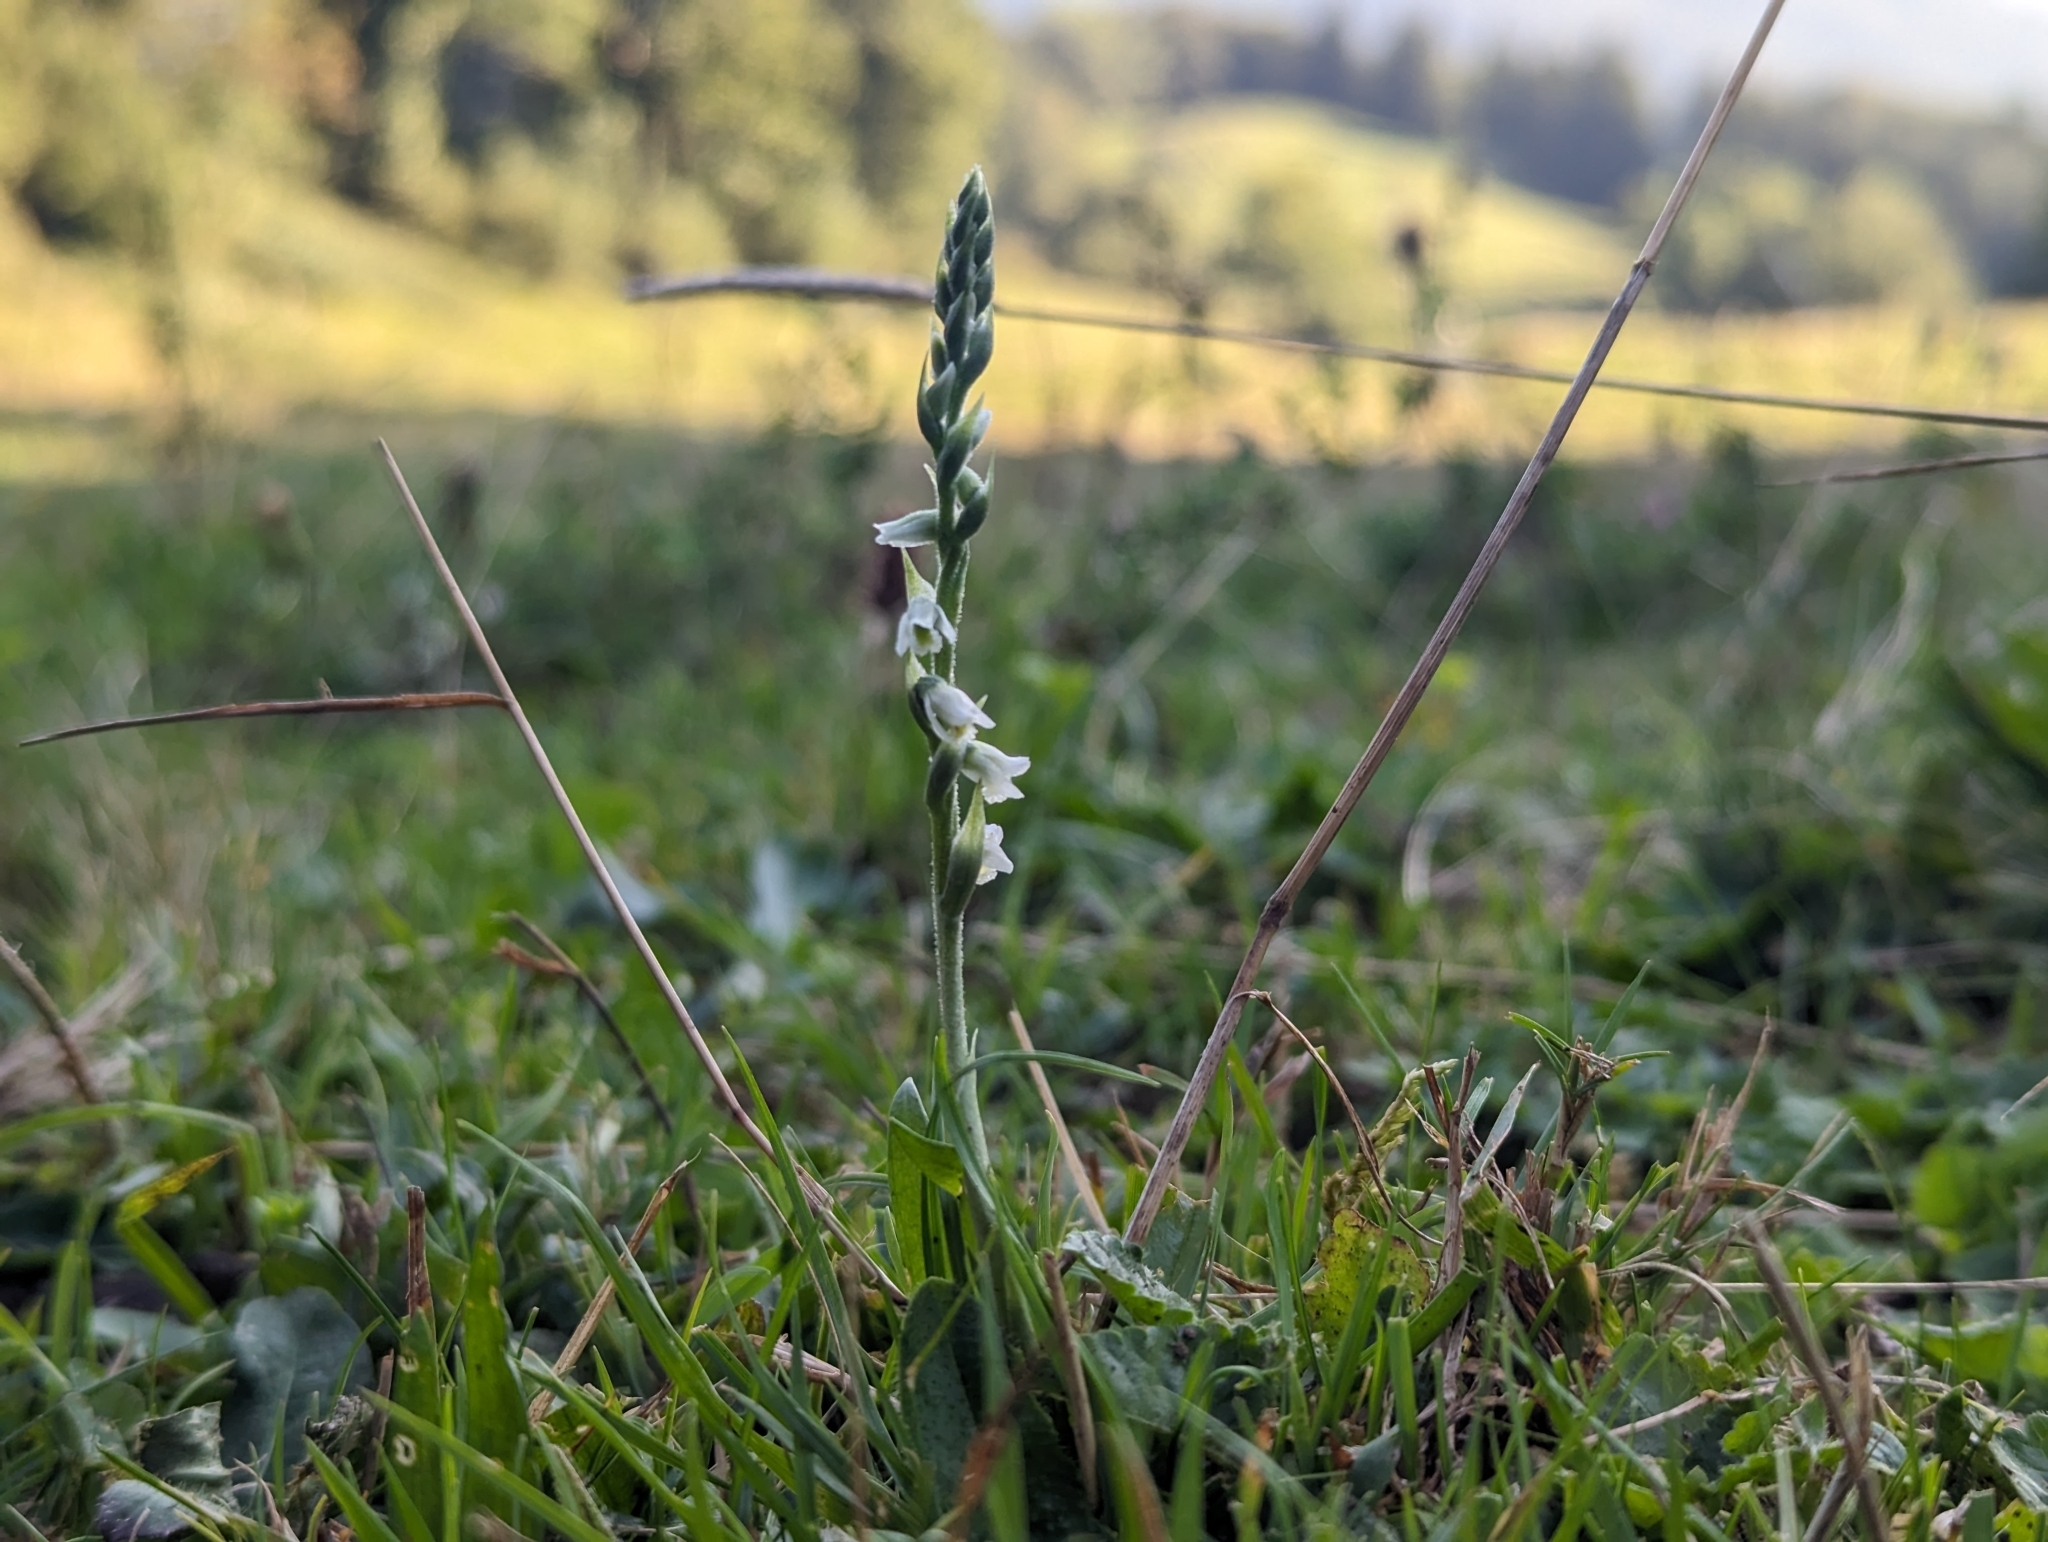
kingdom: Plantae
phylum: Tracheophyta
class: Liliopsida
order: Asparagales
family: Orchidaceae
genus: Spiranthes
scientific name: Spiranthes spiralis
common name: Autumn lady's-tresses
